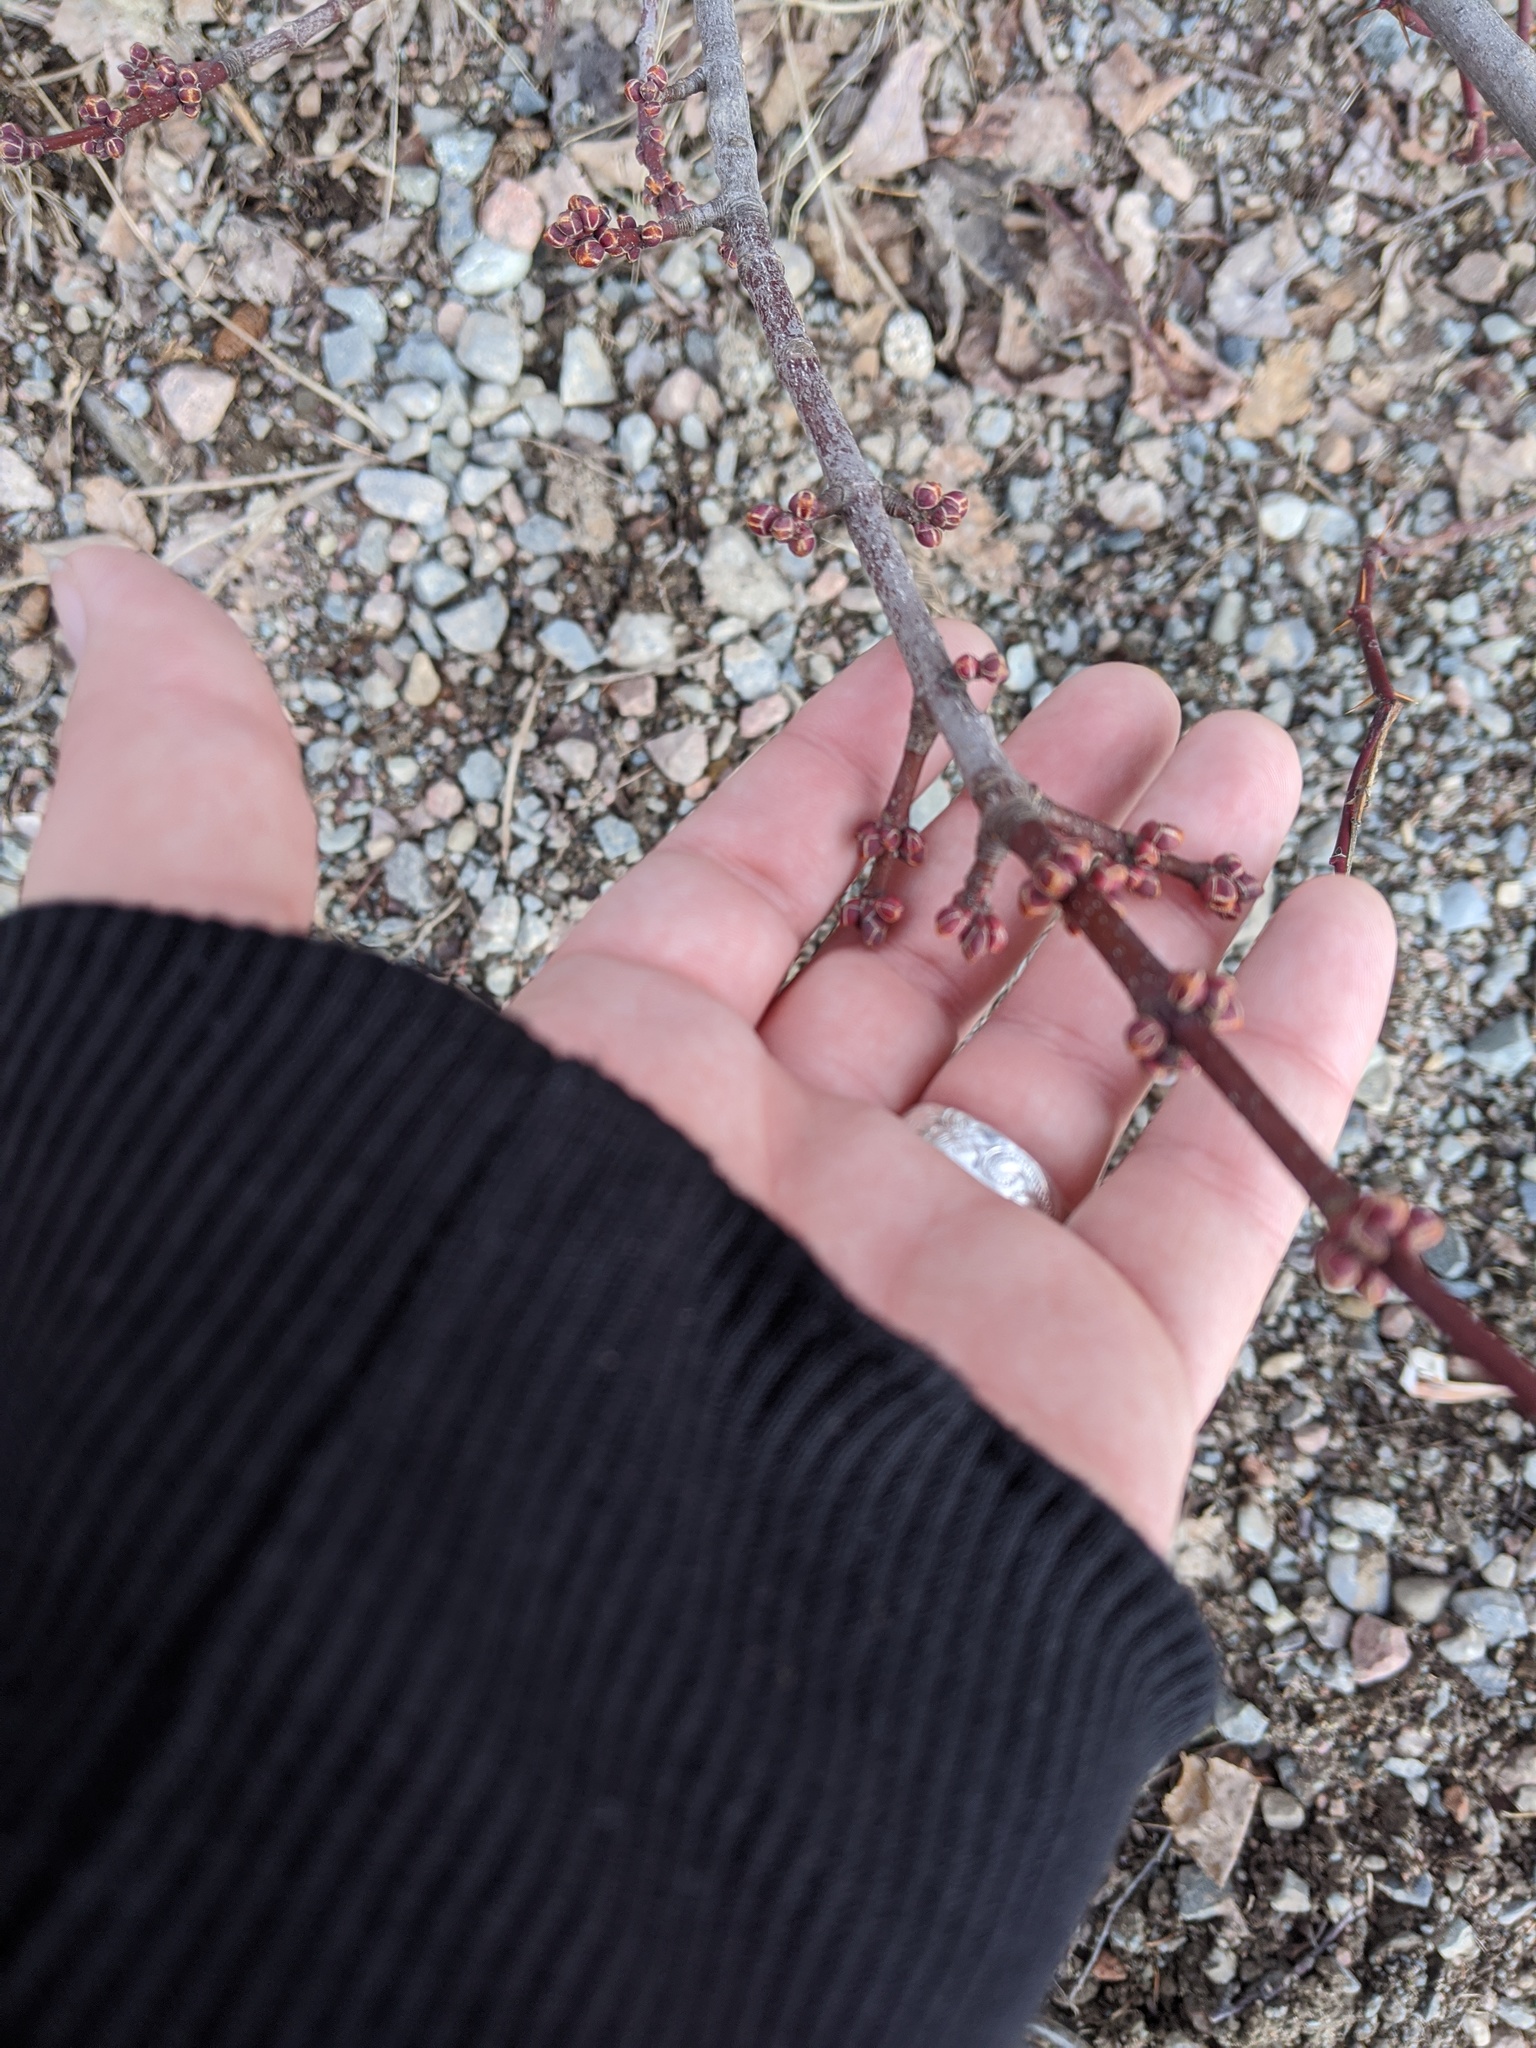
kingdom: Plantae
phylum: Tracheophyta
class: Magnoliopsida
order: Sapindales
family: Sapindaceae
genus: Acer
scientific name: Acer rubrum
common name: Red maple
